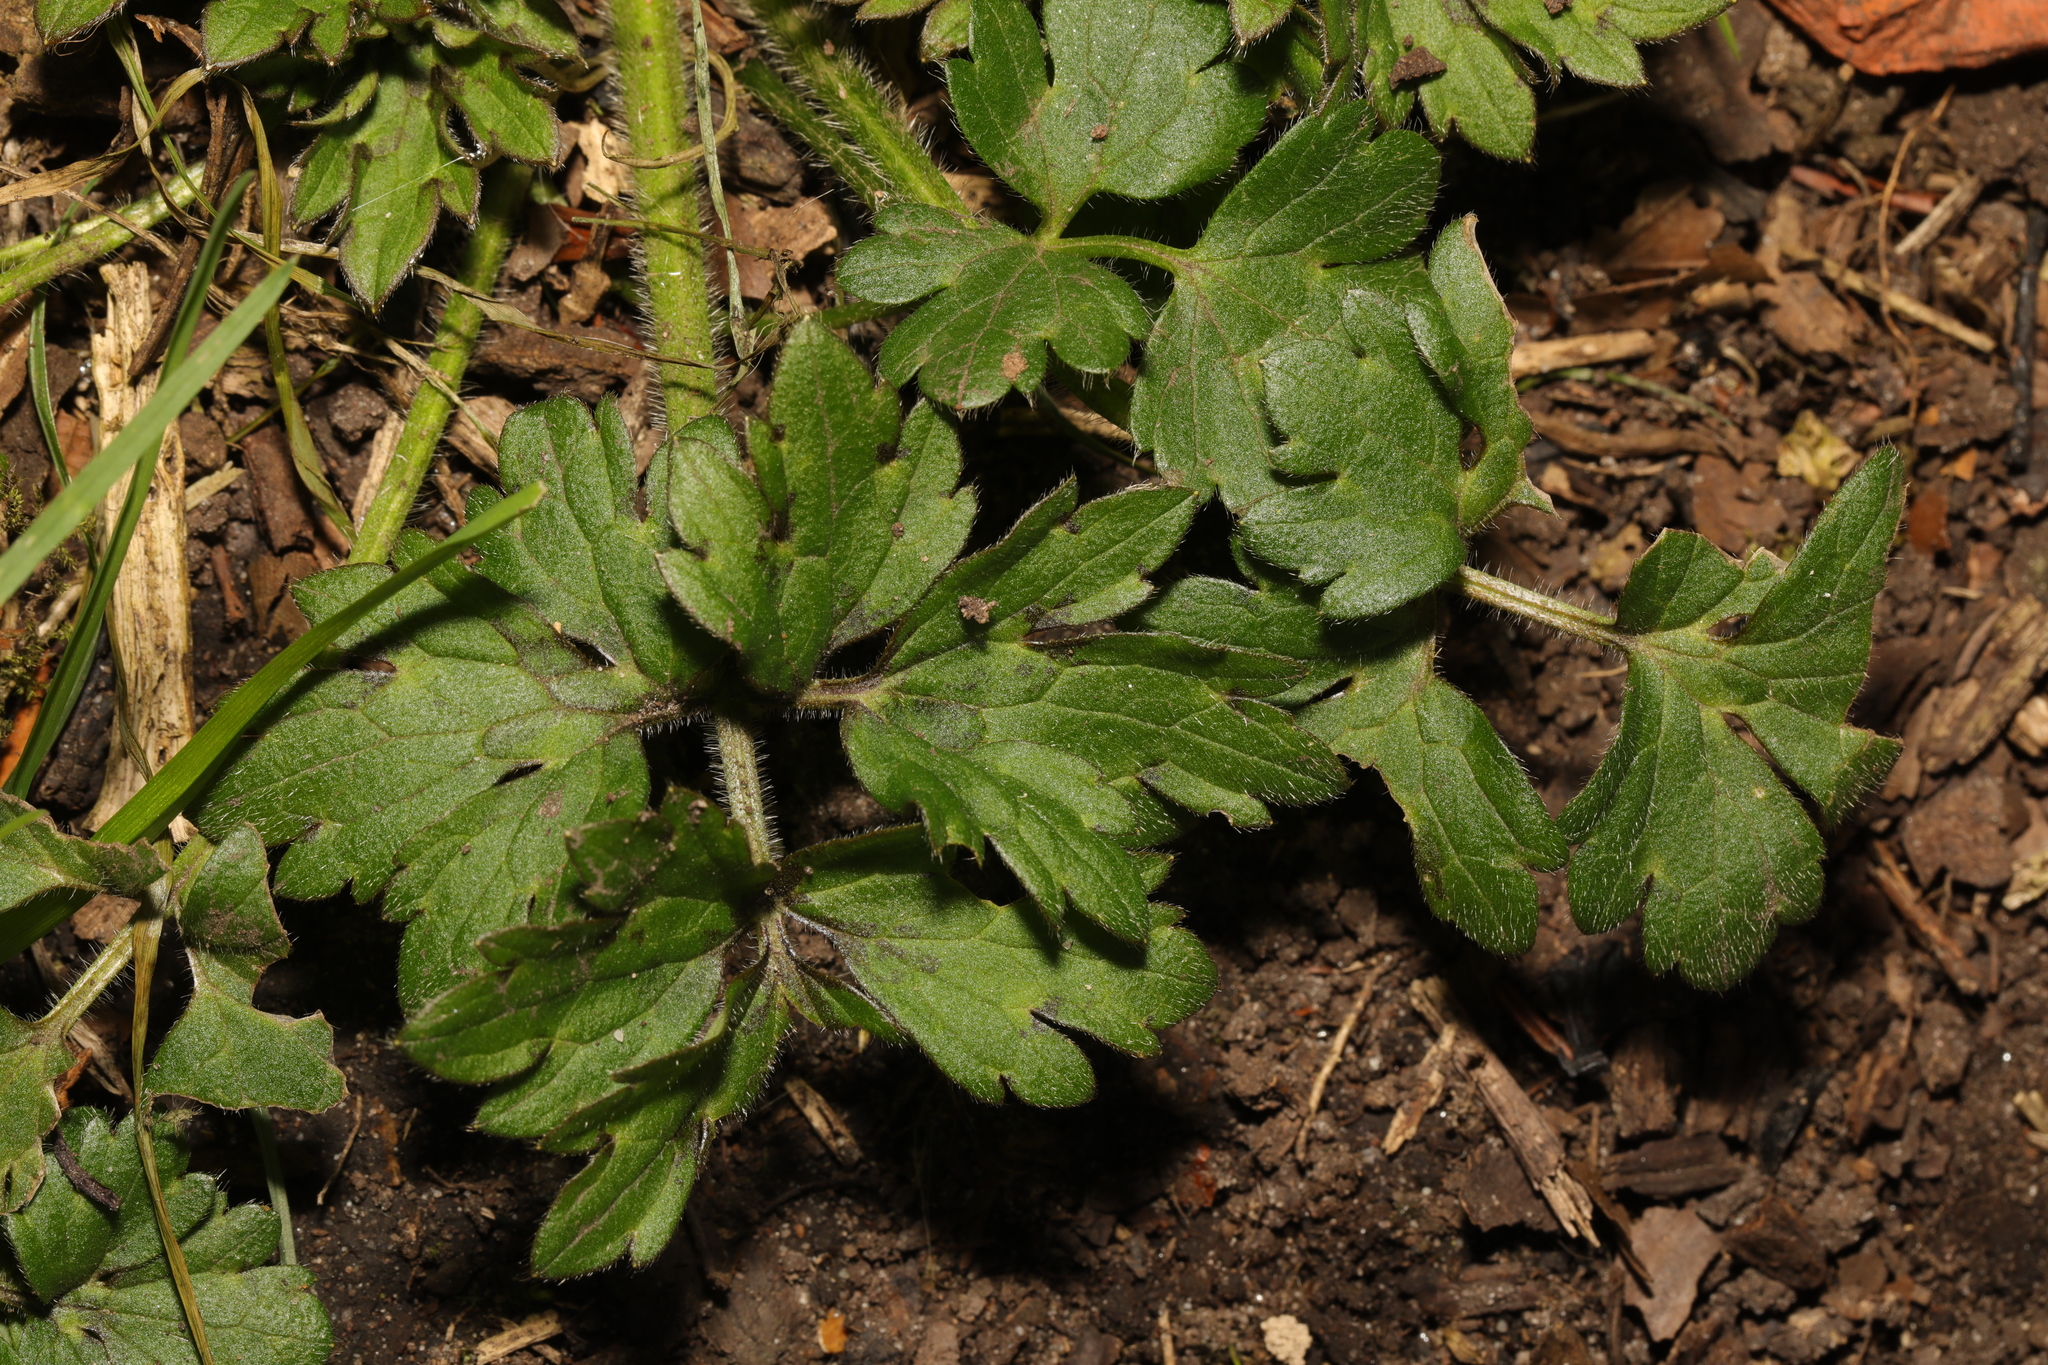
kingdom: Plantae
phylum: Tracheophyta
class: Magnoliopsida
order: Ranunculales
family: Ranunculaceae
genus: Ranunculus
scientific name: Ranunculus repens
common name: Creeping buttercup
